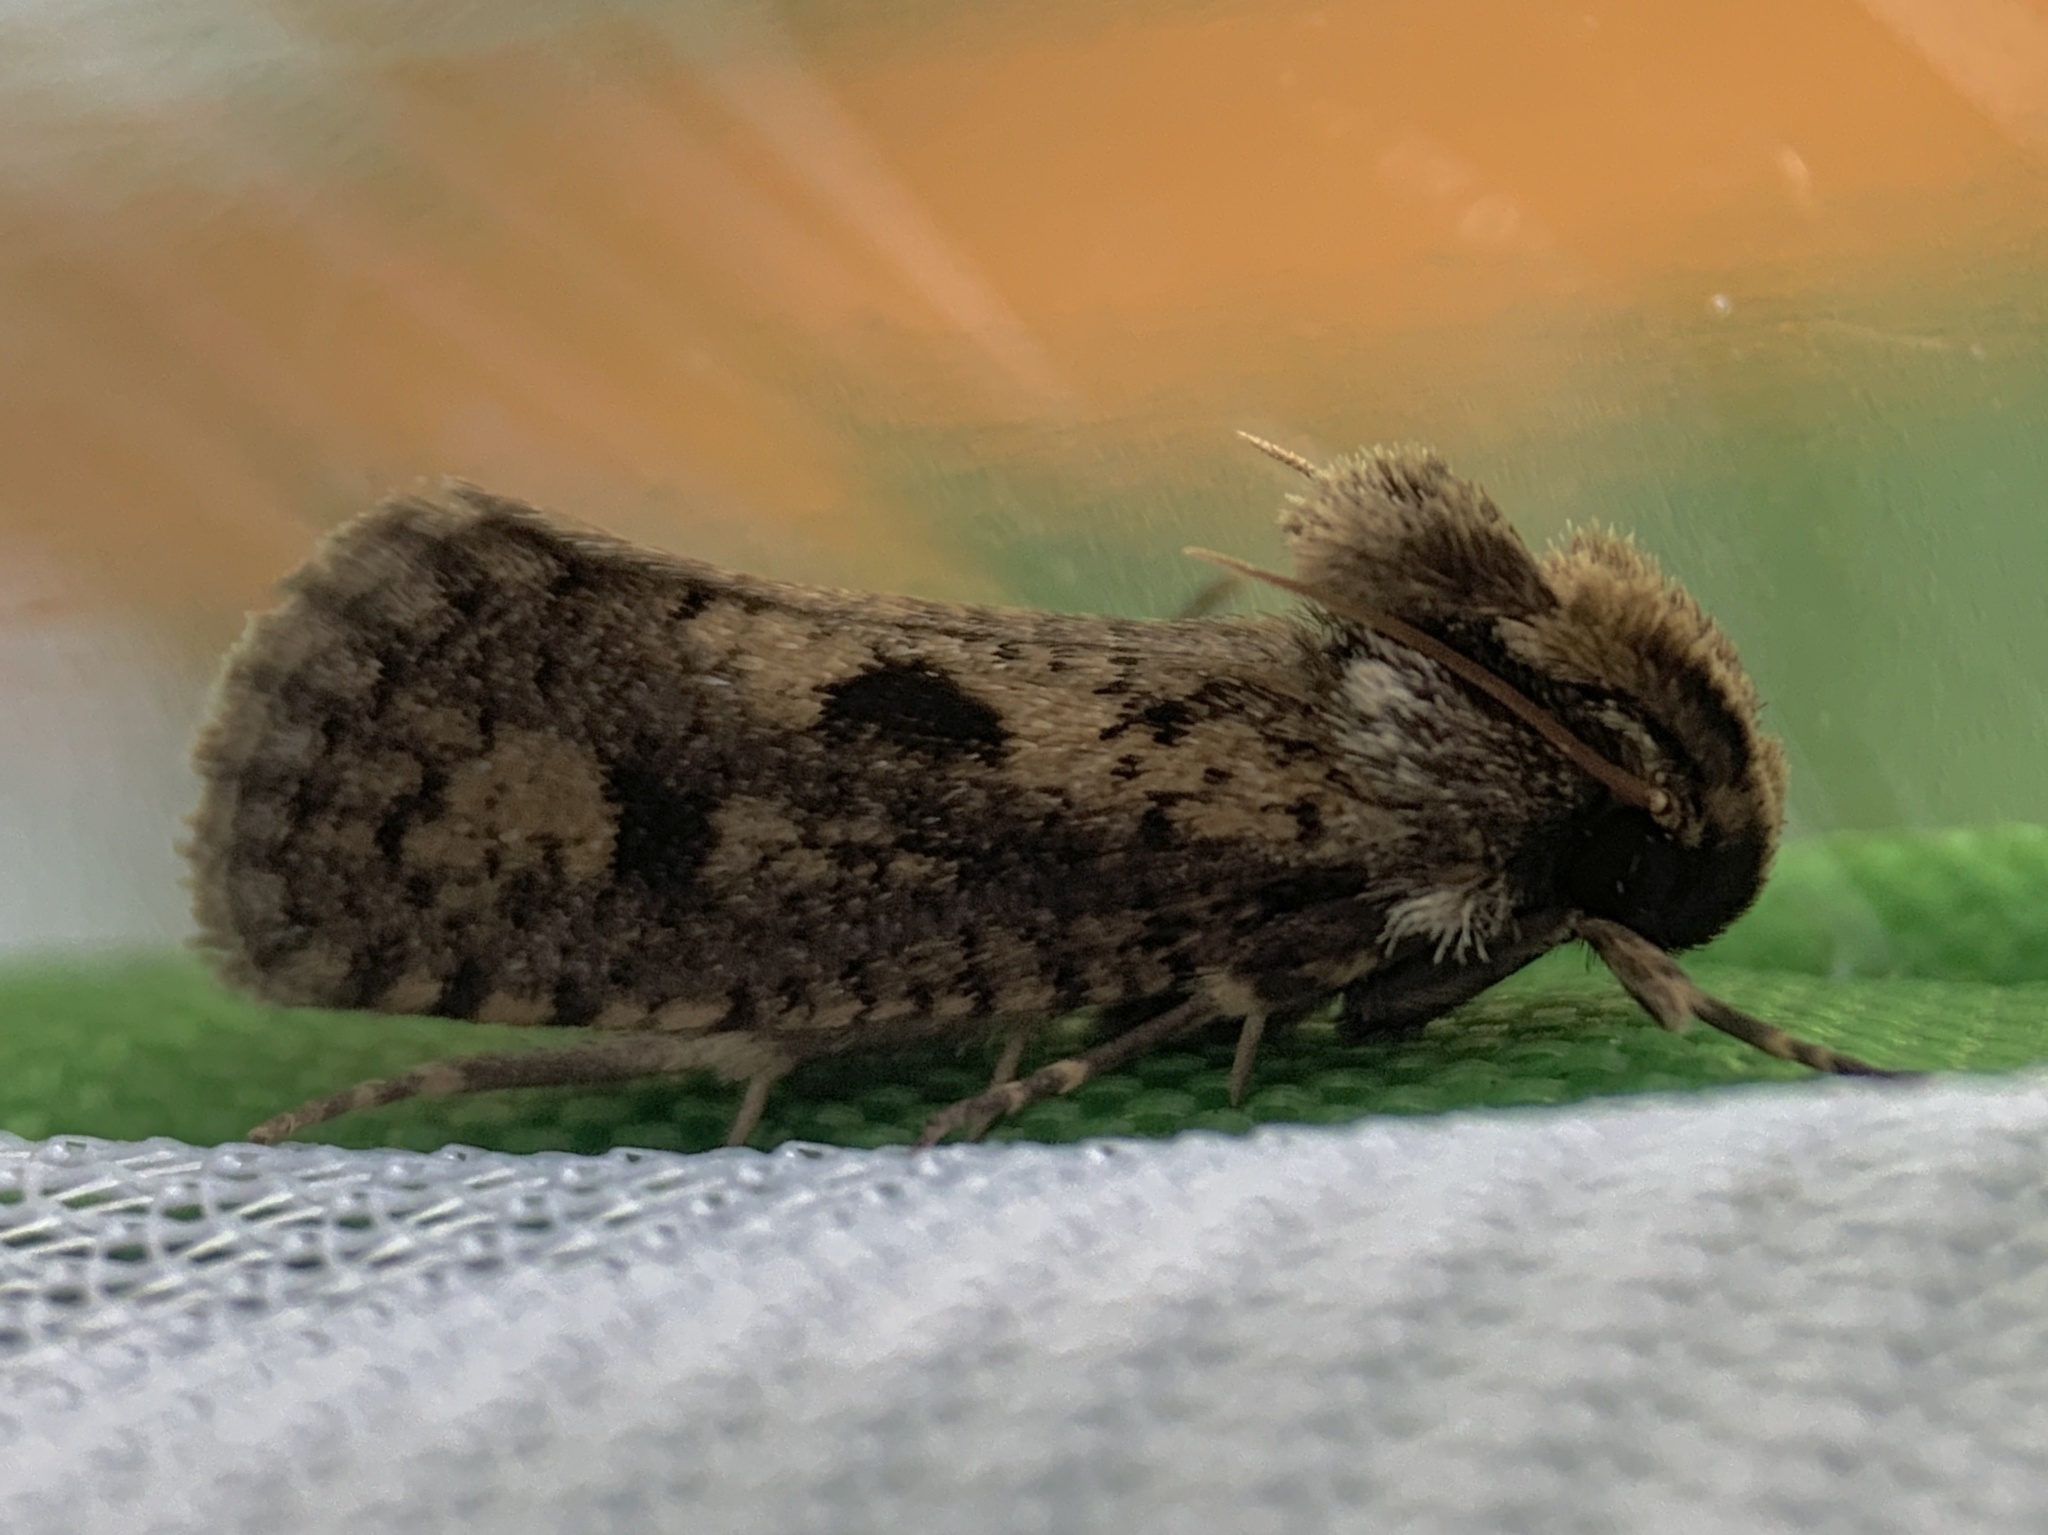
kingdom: Animalia
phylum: Arthropoda
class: Insecta
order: Lepidoptera
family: Tineidae
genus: Acrolophus
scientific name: Acrolophus popeanella
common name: Clemens' grass tubeworm moth
